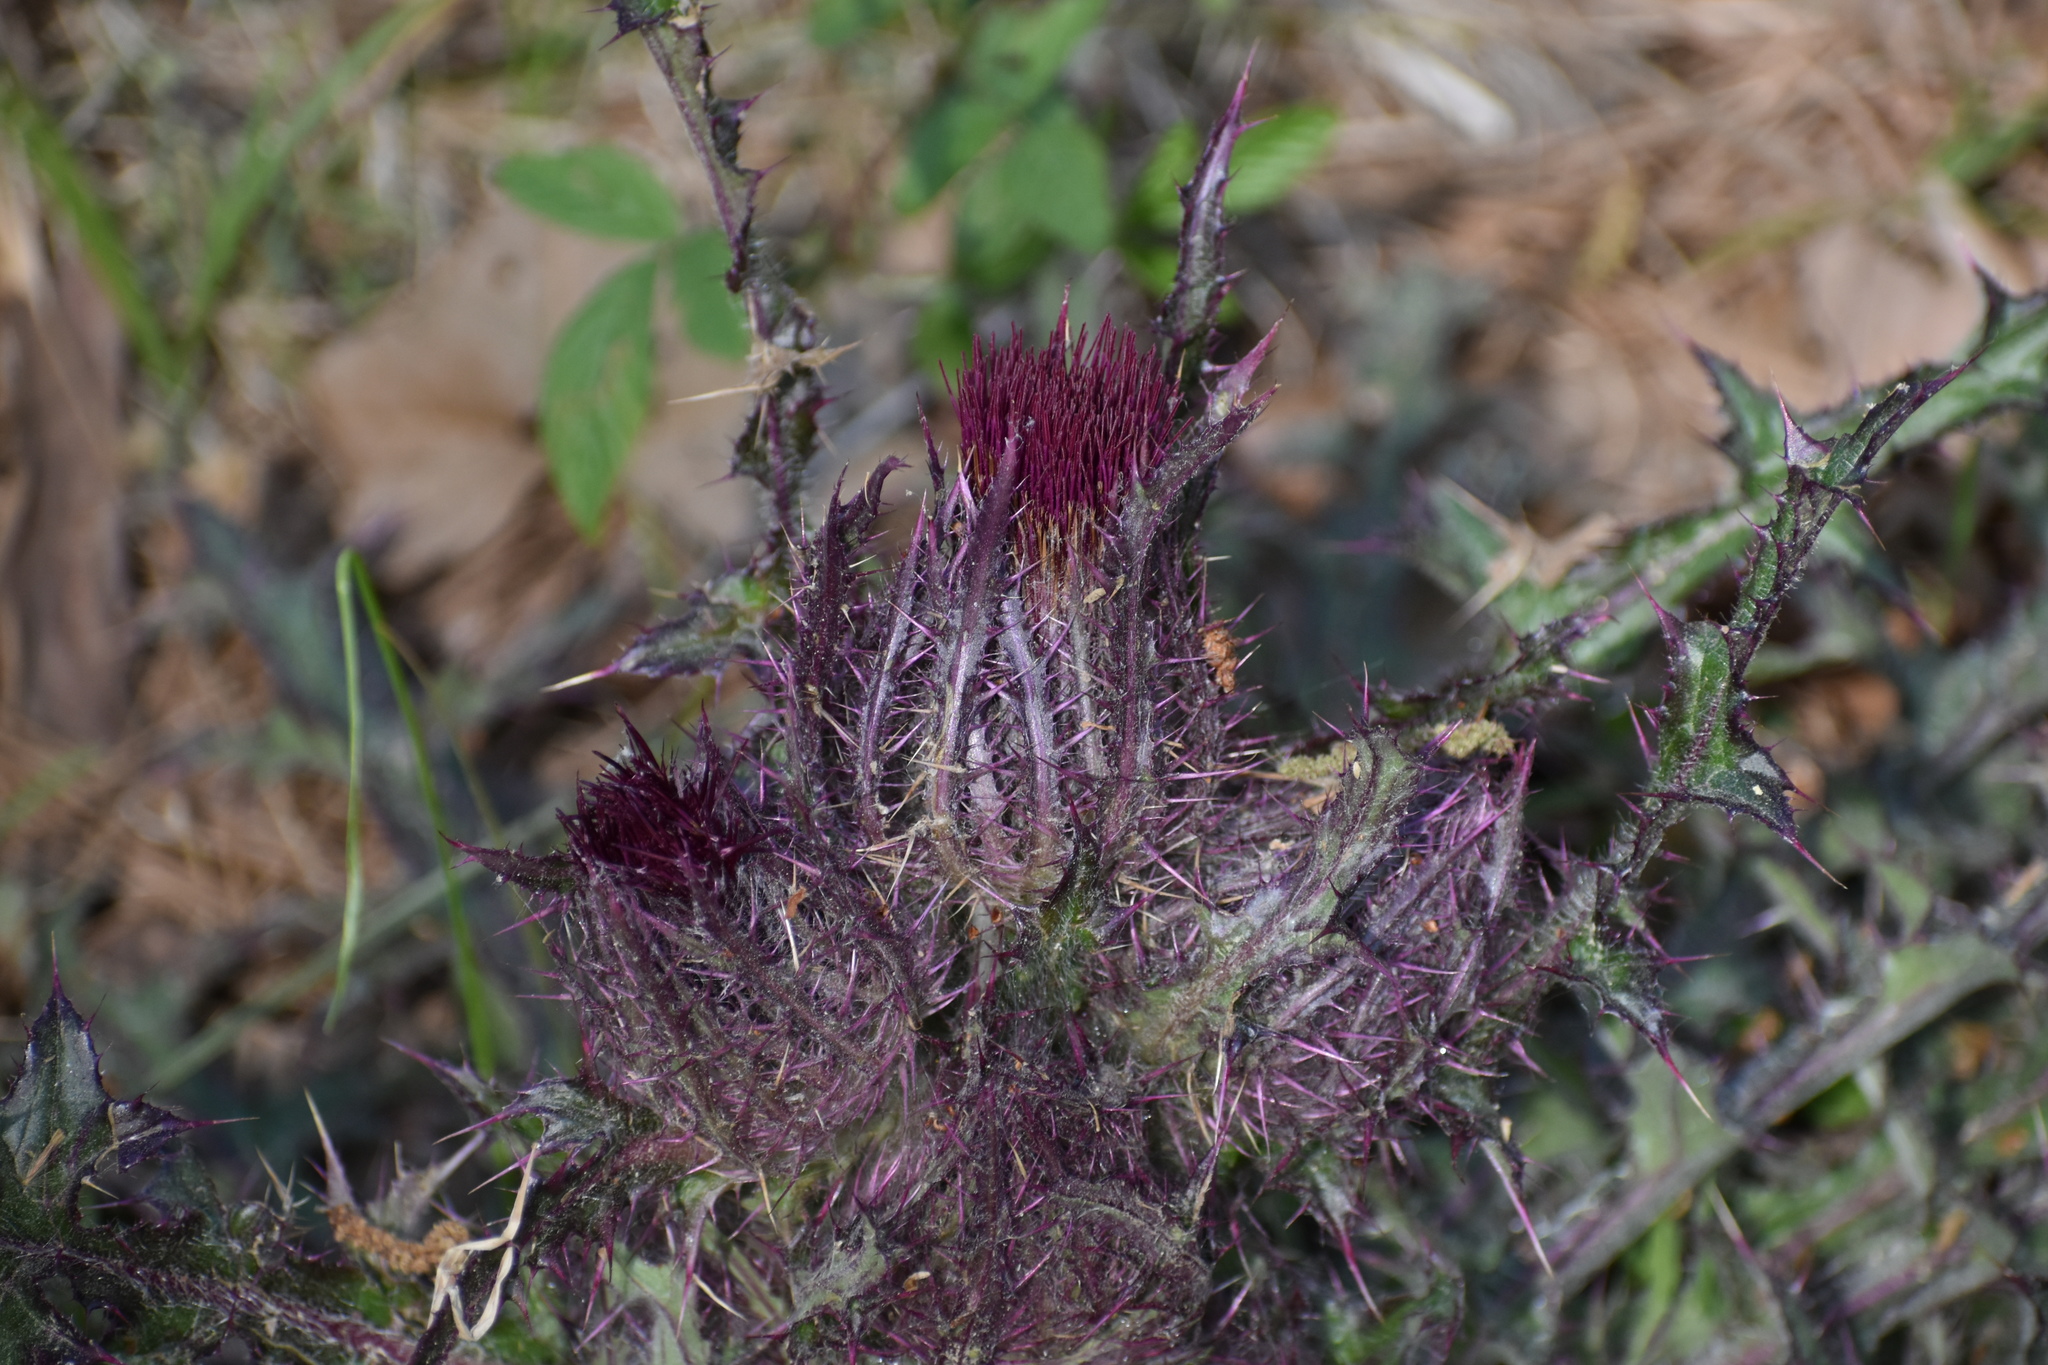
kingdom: Plantae
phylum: Tracheophyta
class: Magnoliopsida
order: Asterales
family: Asteraceae
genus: Cirsium
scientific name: Cirsium horridulum
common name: Bristly thistle
